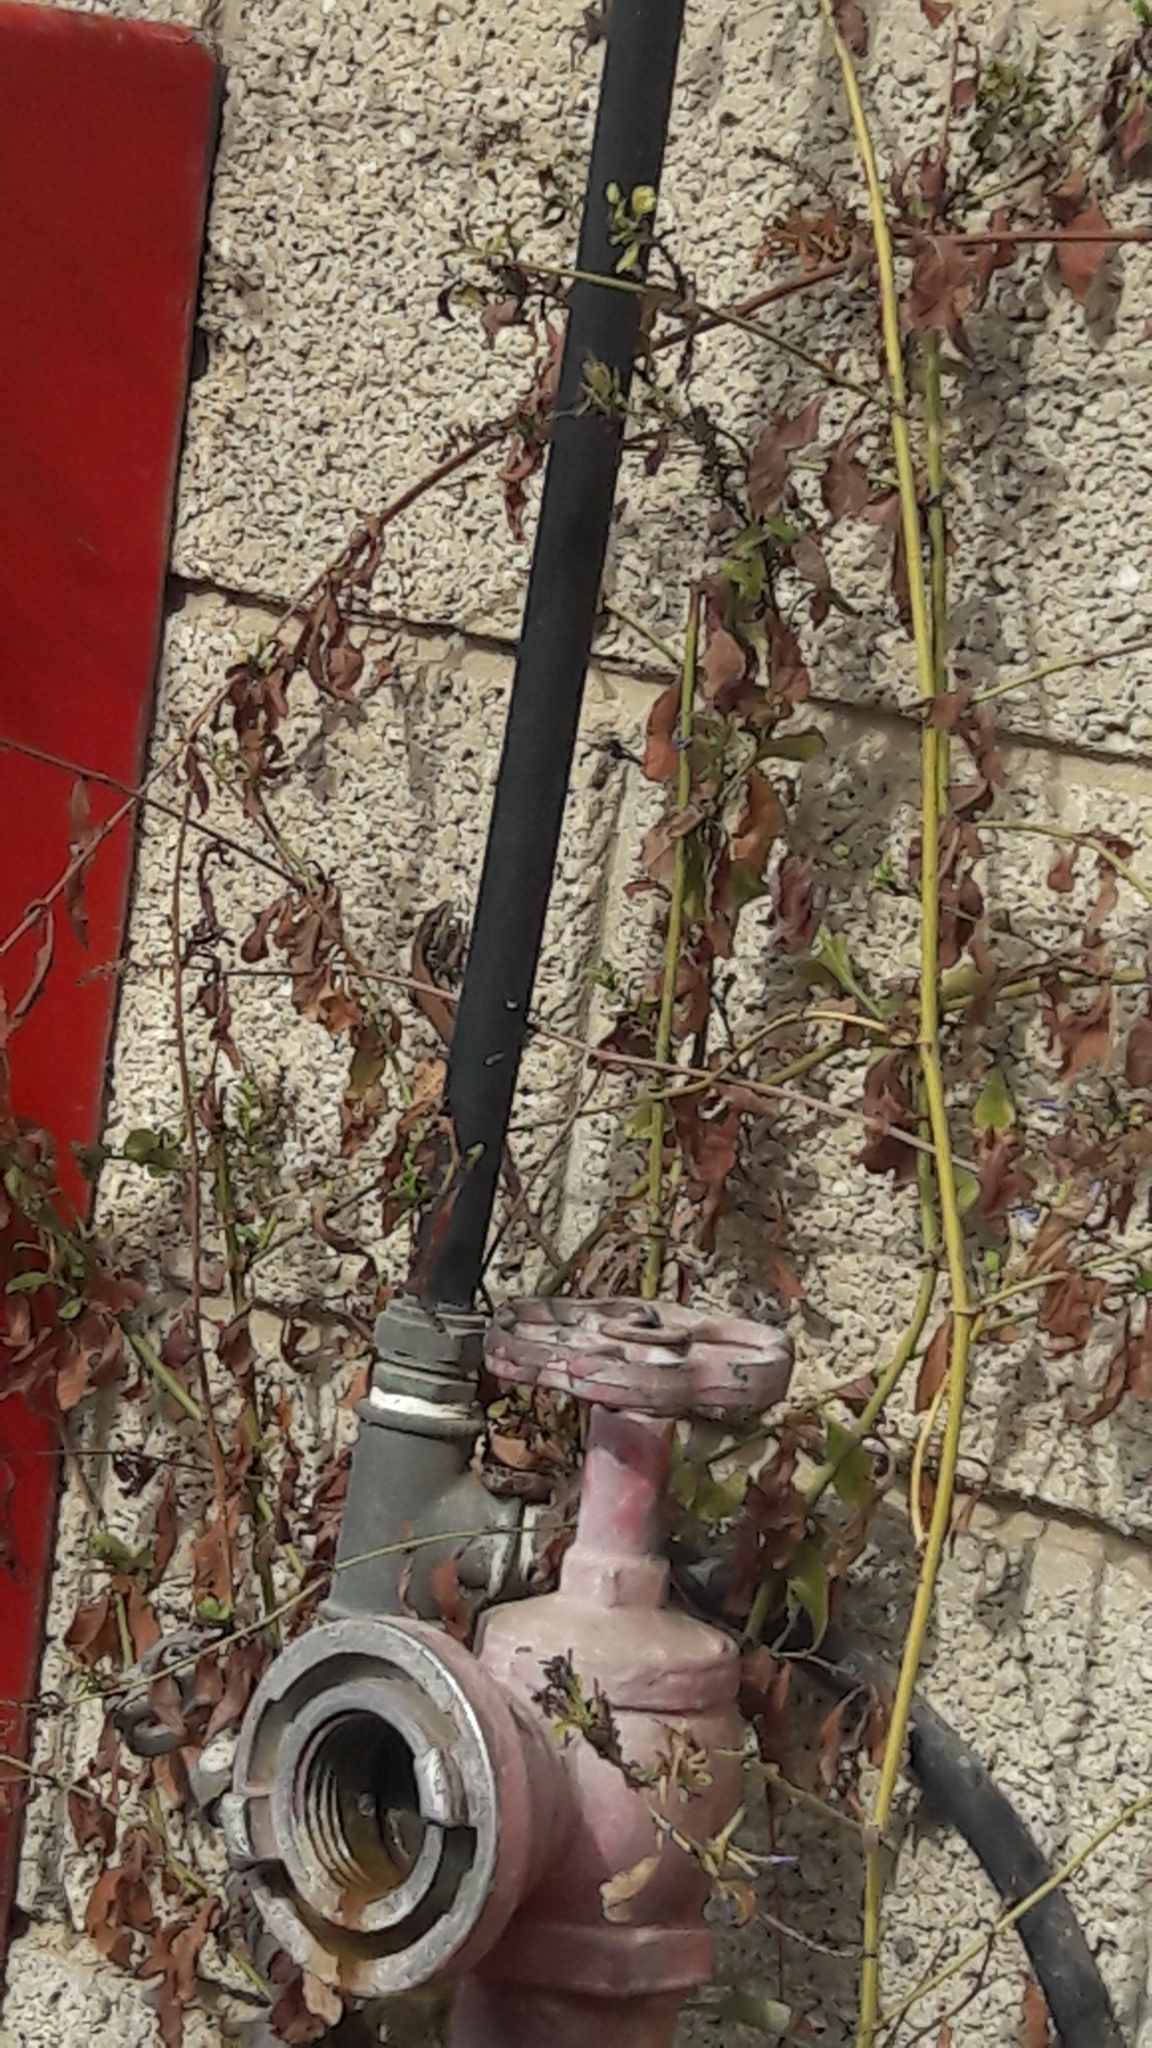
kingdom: Animalia
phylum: Chordata
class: Squamata
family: Lacertidae
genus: Phoenicolacerta
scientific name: Phoenicolacerta laevis
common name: Lebanon lizard
